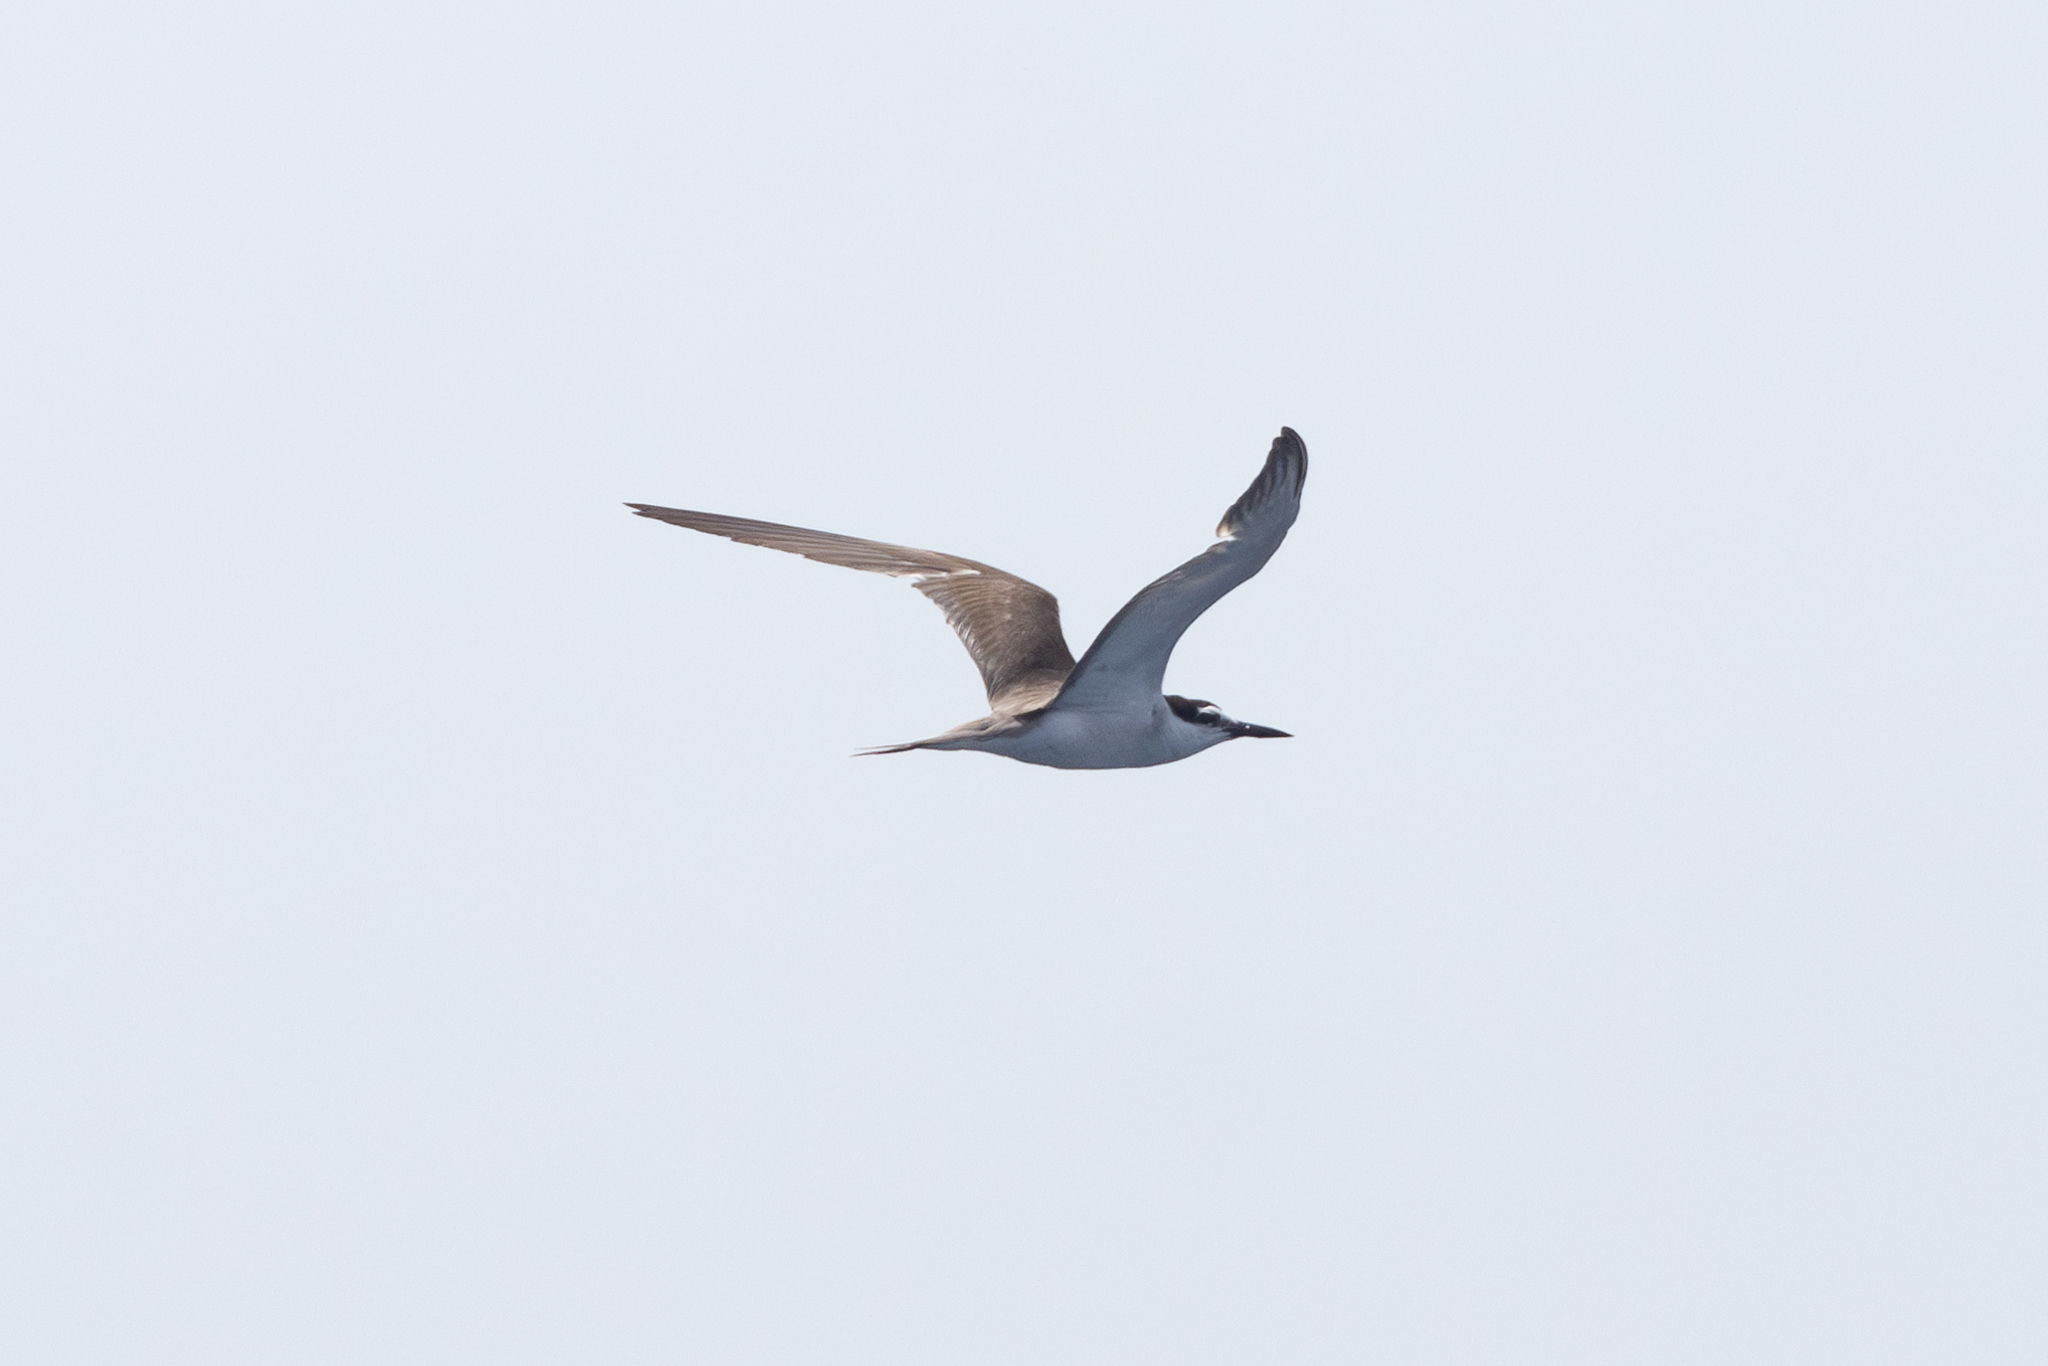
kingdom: Animalia
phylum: Chordata
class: Aves
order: Charadriiformes
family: Laridae
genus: Onychoprion
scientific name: Onychoprion anaethetus
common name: Bridled tern
